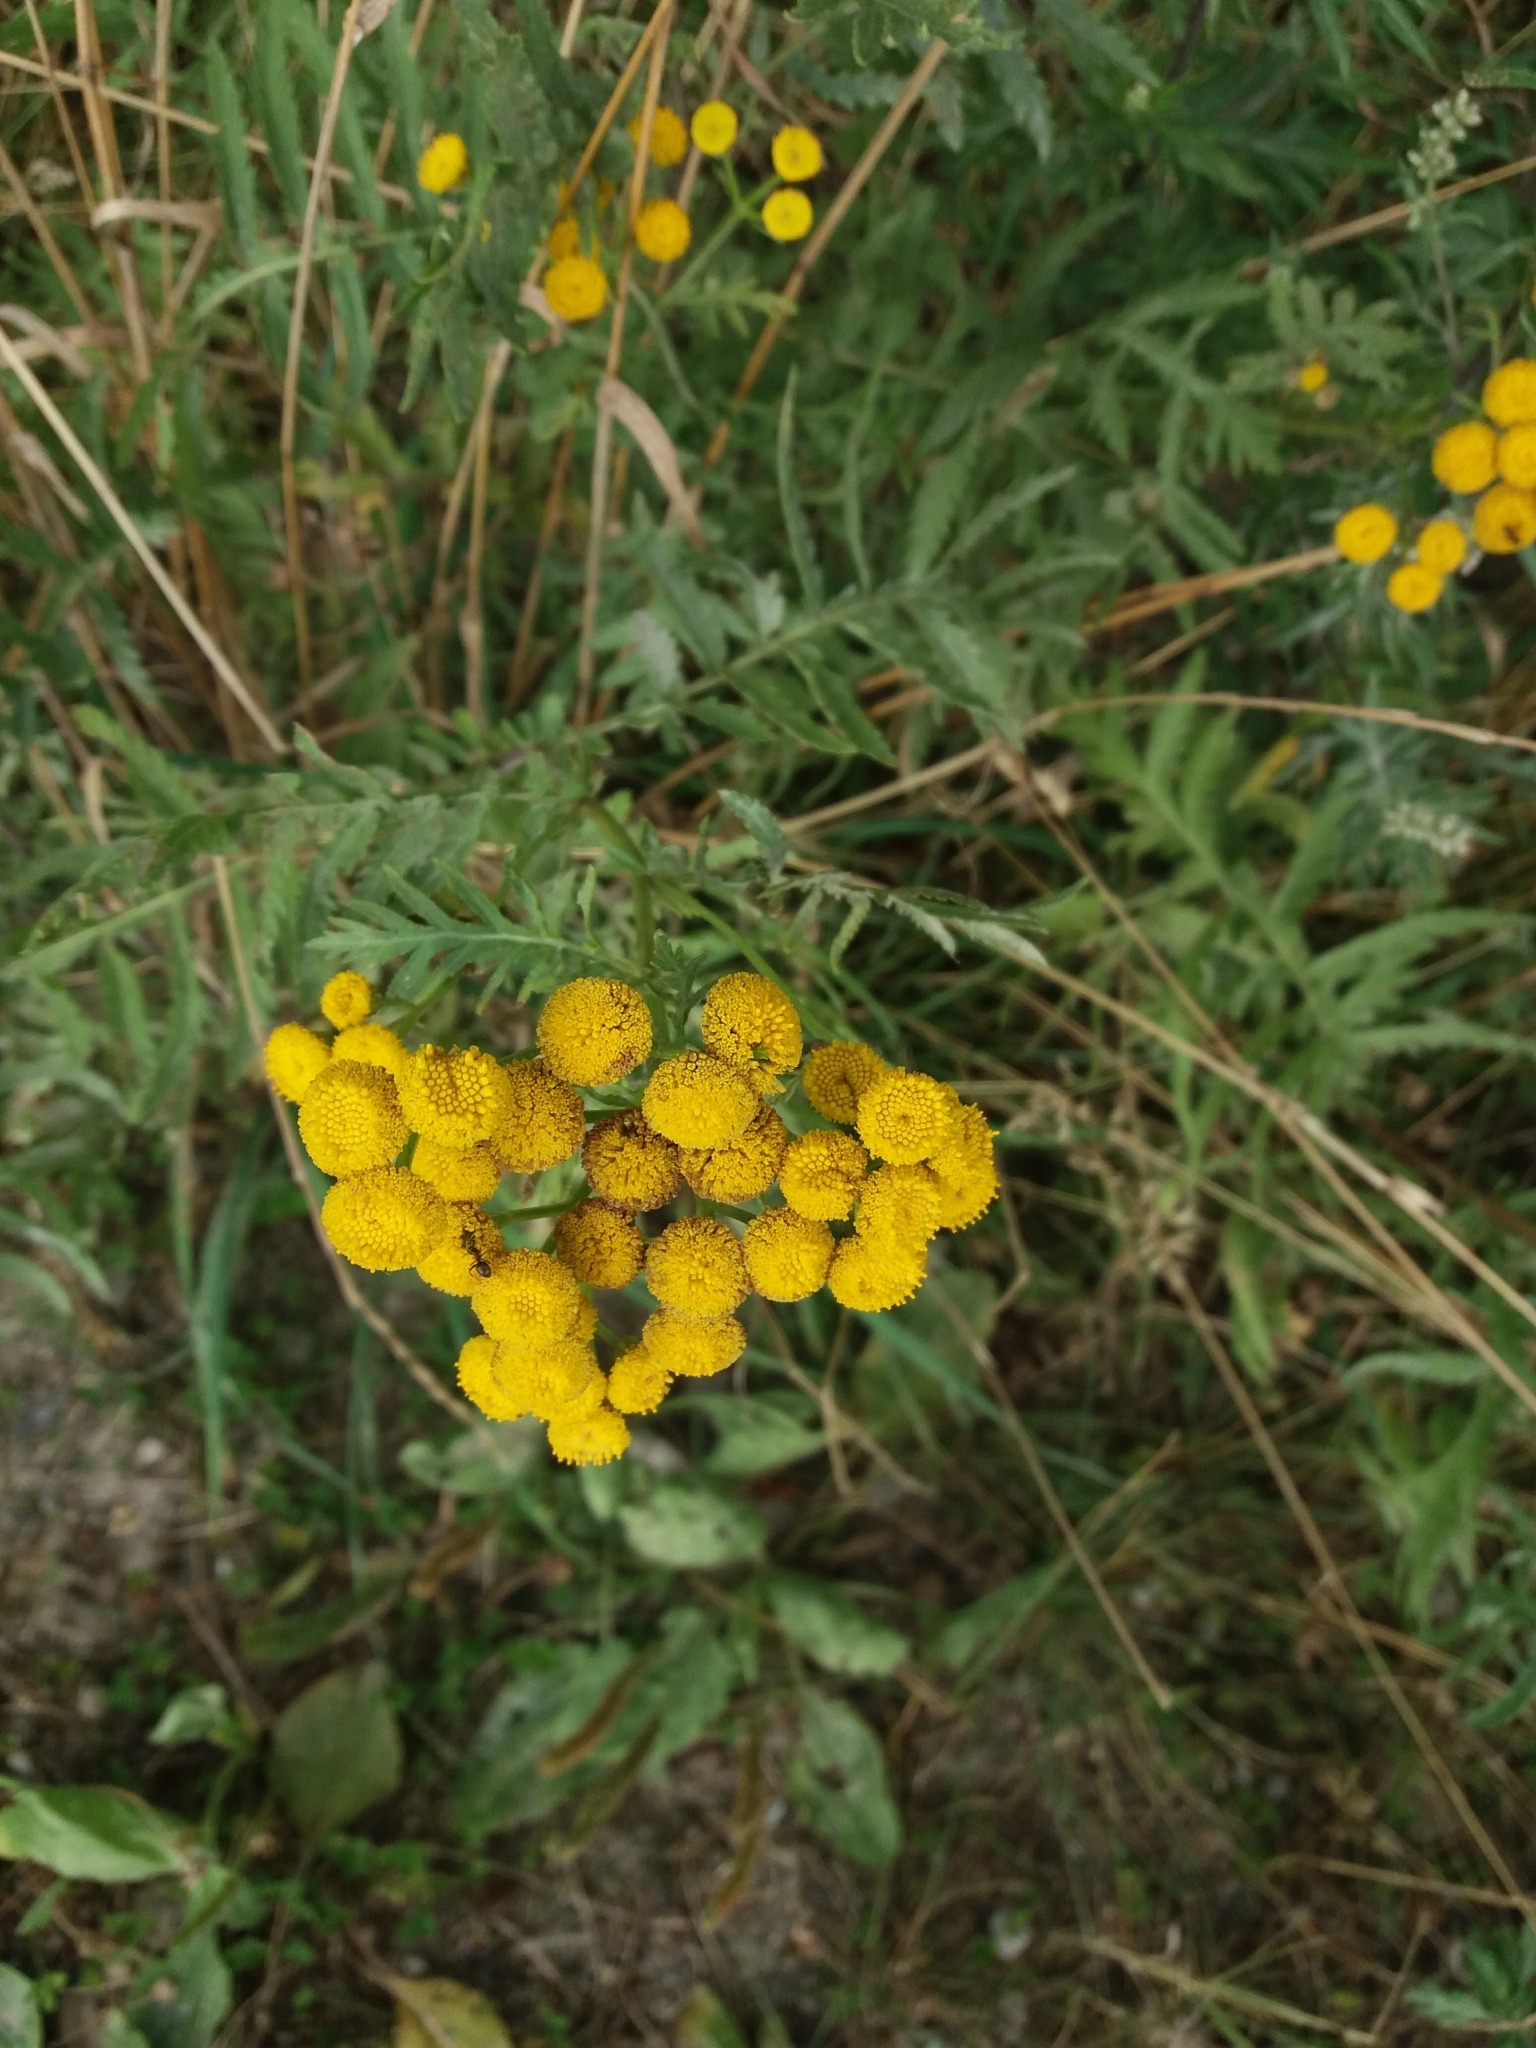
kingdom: Plantae
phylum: Tracheophyta
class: Magnoliopsida
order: Asterales
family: Asteraceae
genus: Tanacetum
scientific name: Tanacetum vulgare
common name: Common tansy
